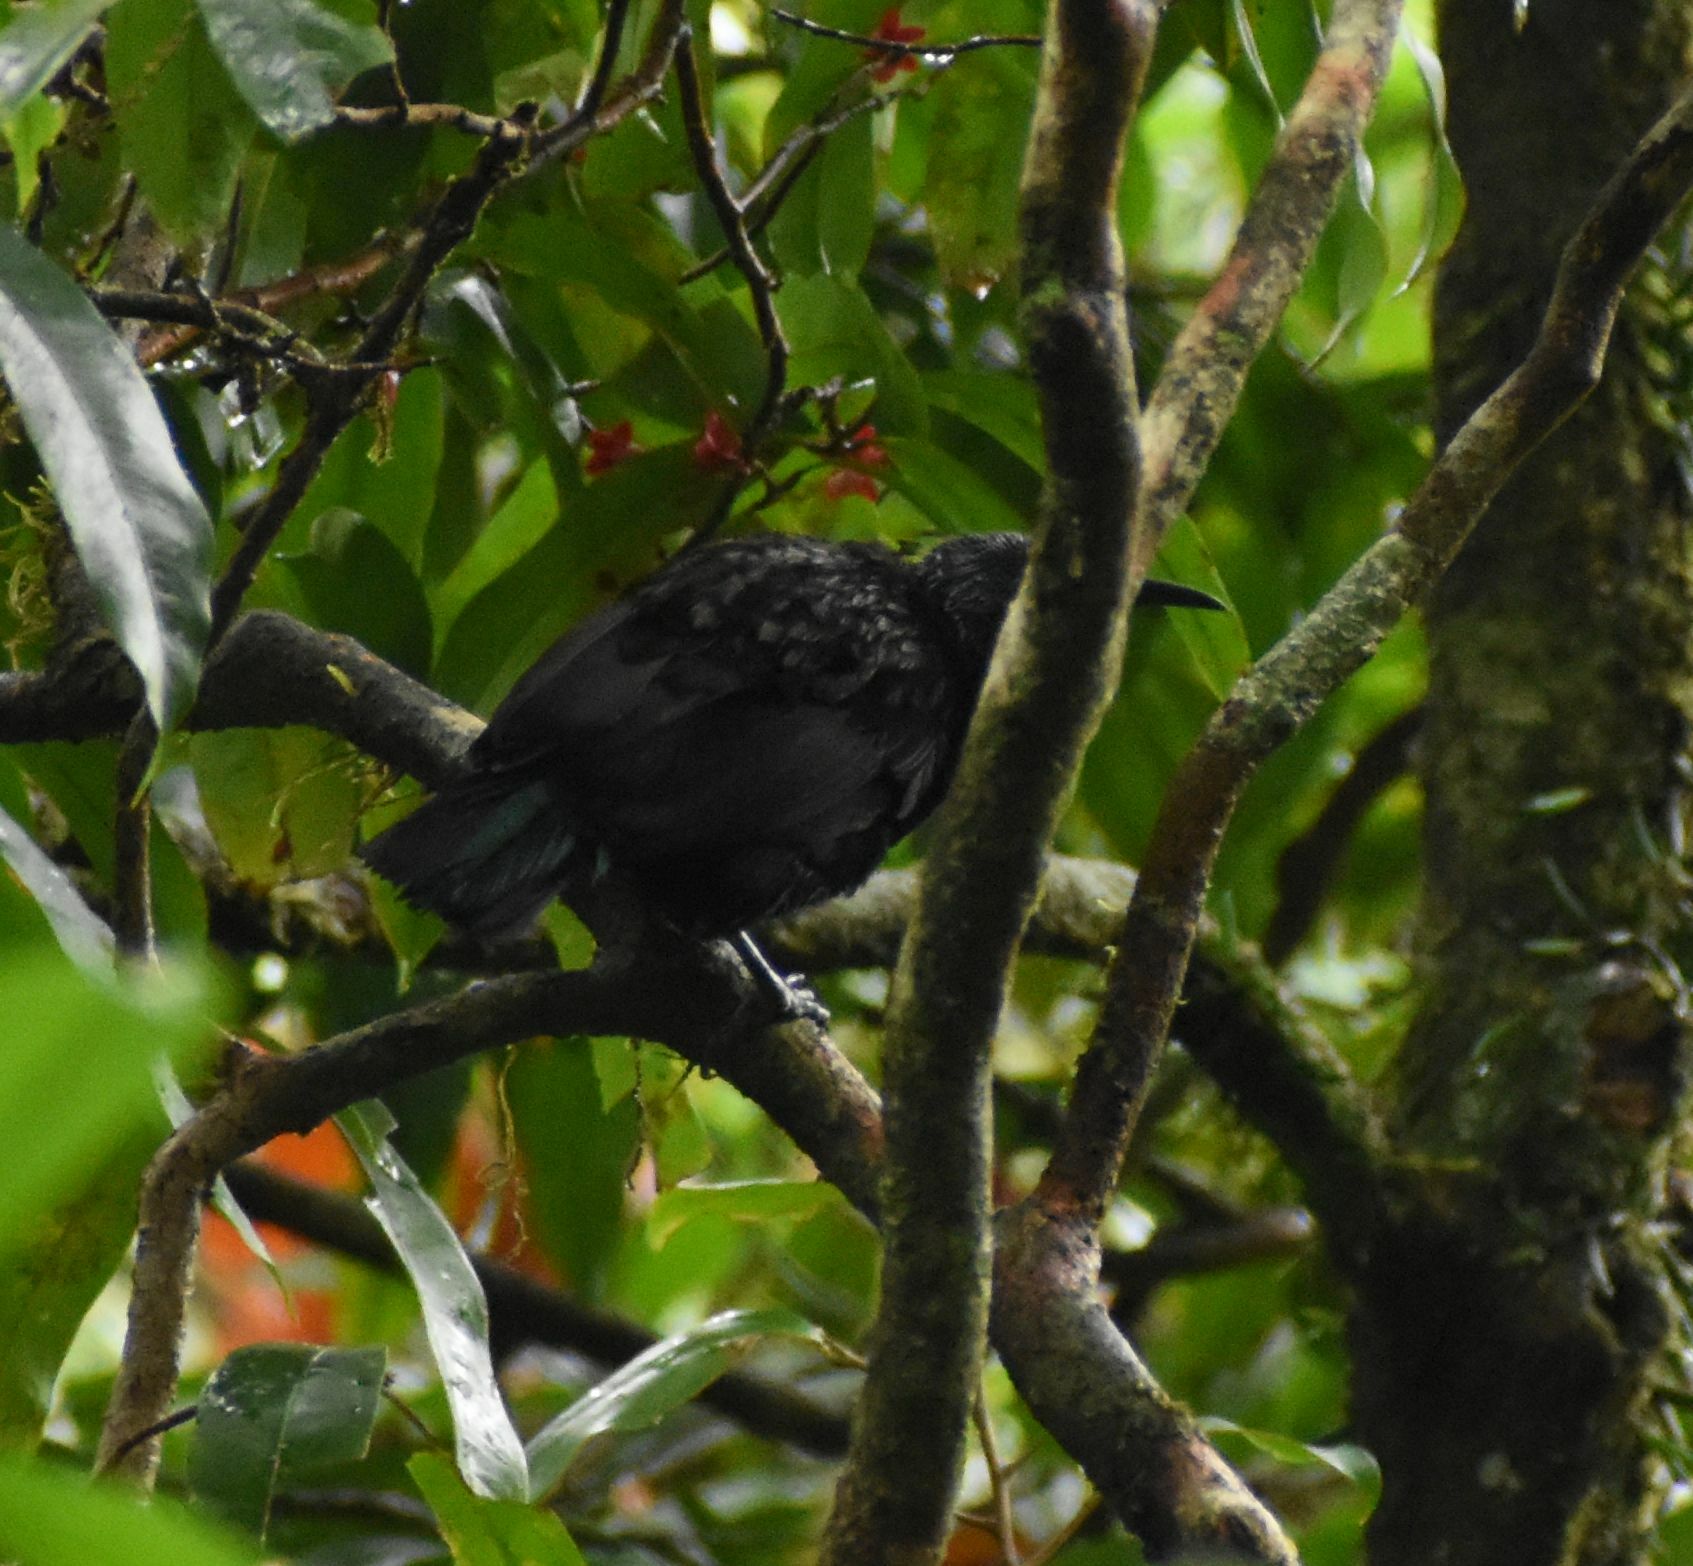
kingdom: Animalia
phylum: Chordata
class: Aves
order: Passeriformes
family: Paradisaeidae
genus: Ptiloris
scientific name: Ptiloris victoriae
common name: Victoria's riflebird
